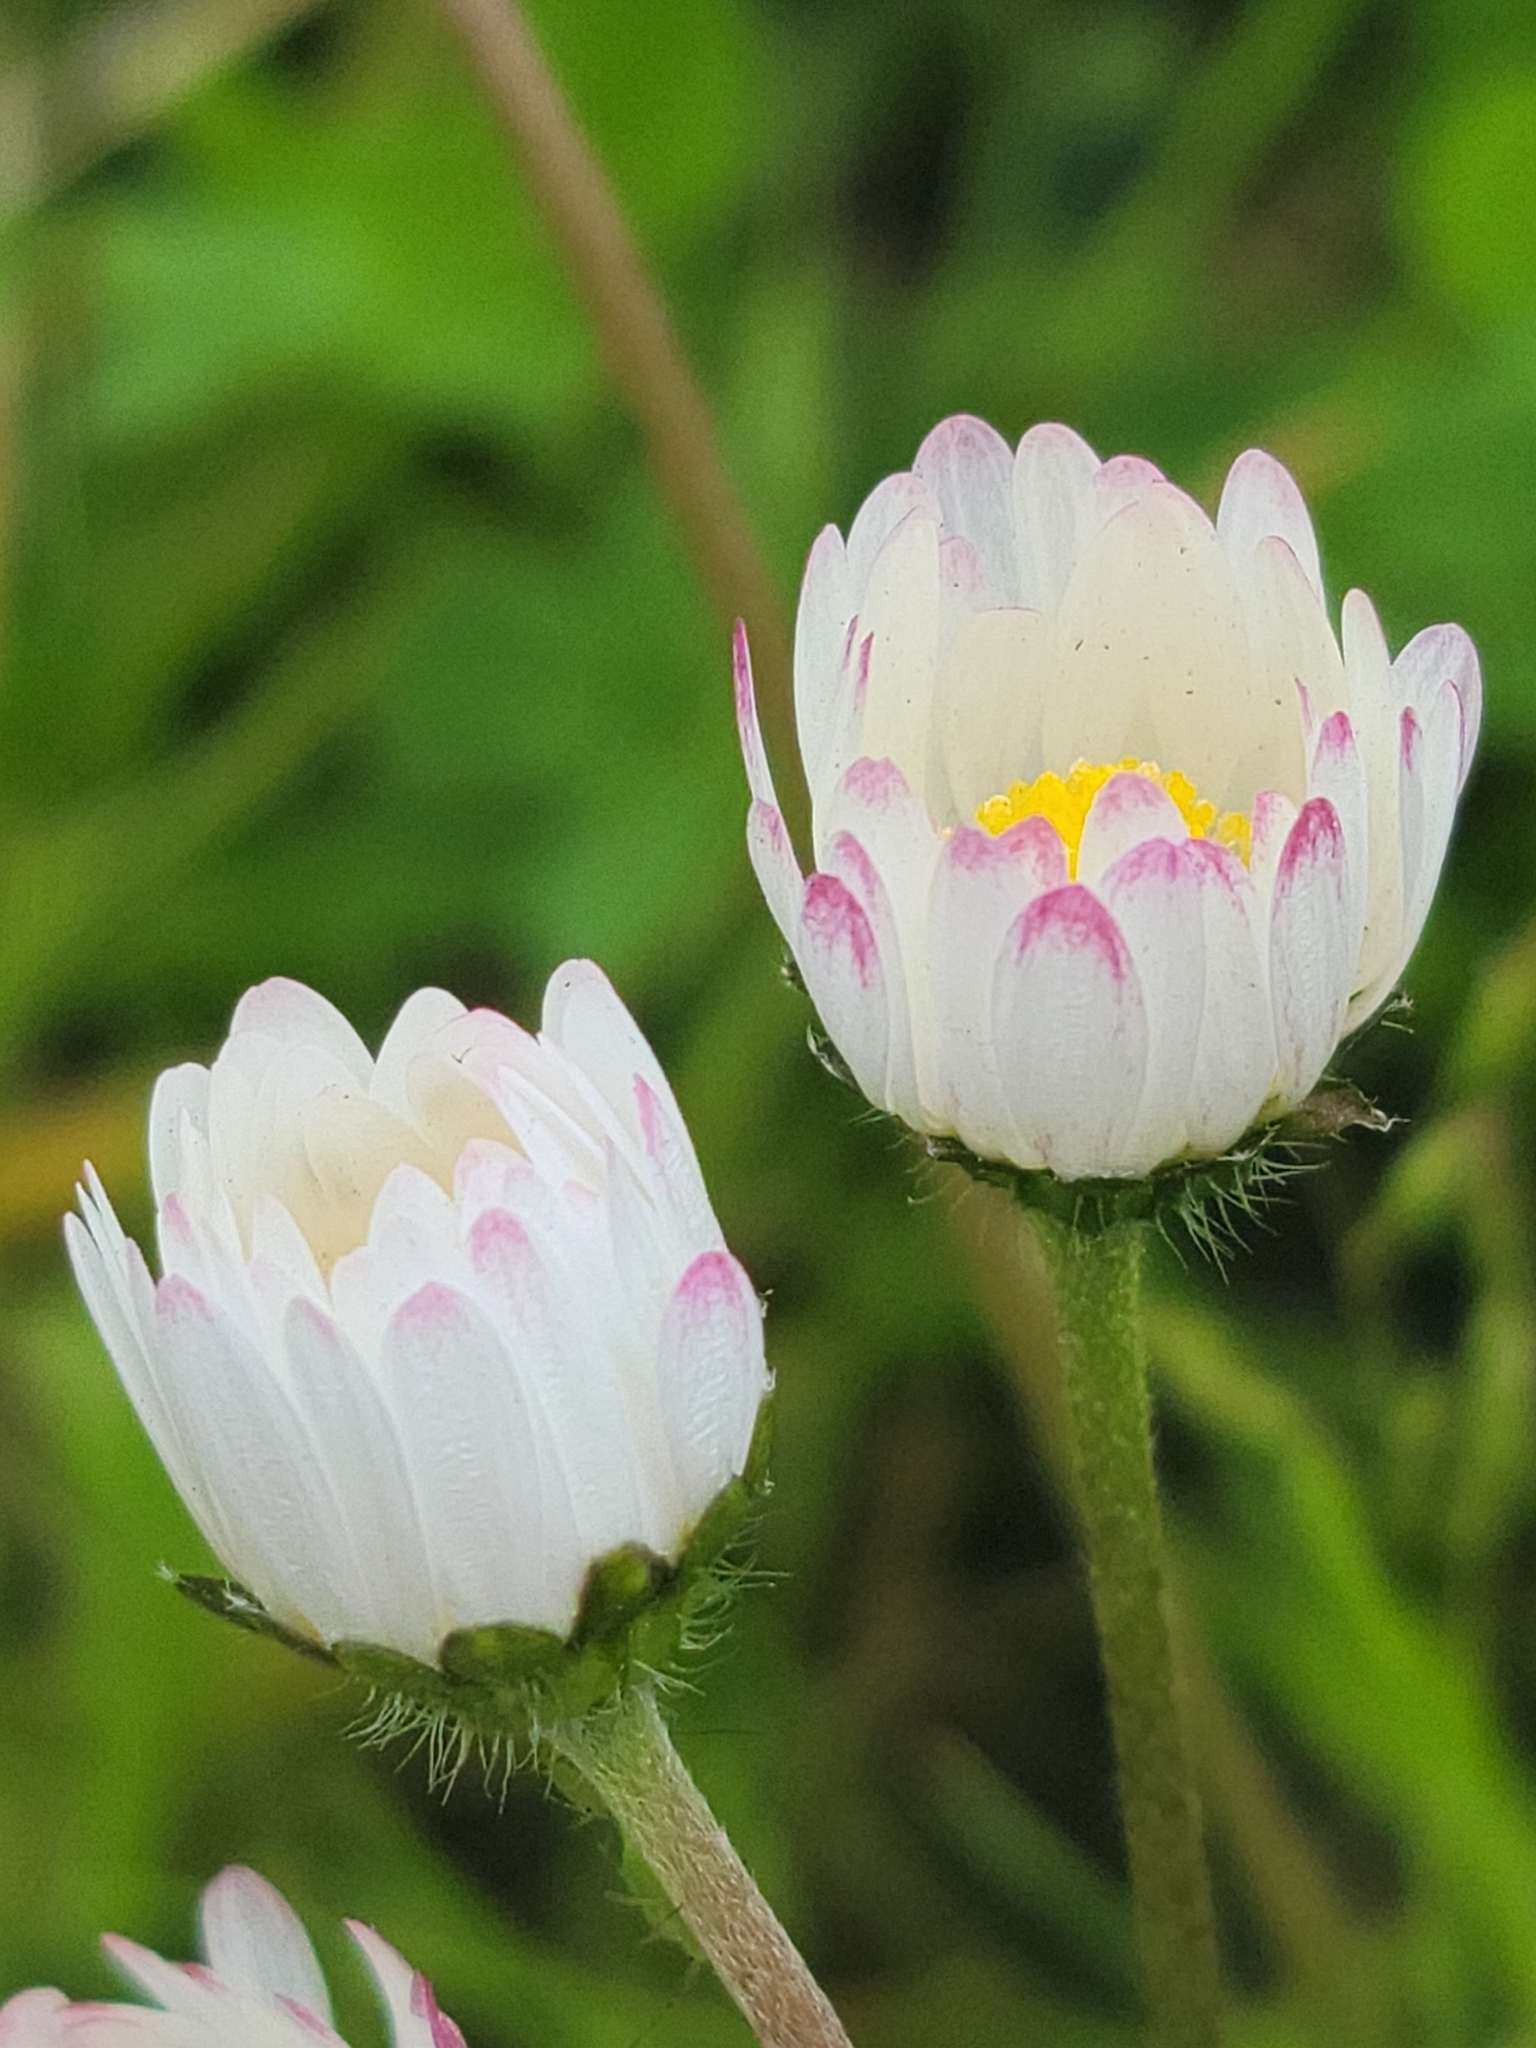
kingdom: Plantae
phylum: Tracheophyta
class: Magnoliopsida
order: Asterales
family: Asteraceae
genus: Bellis
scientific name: Bellis perennis
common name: Lawndaisy
